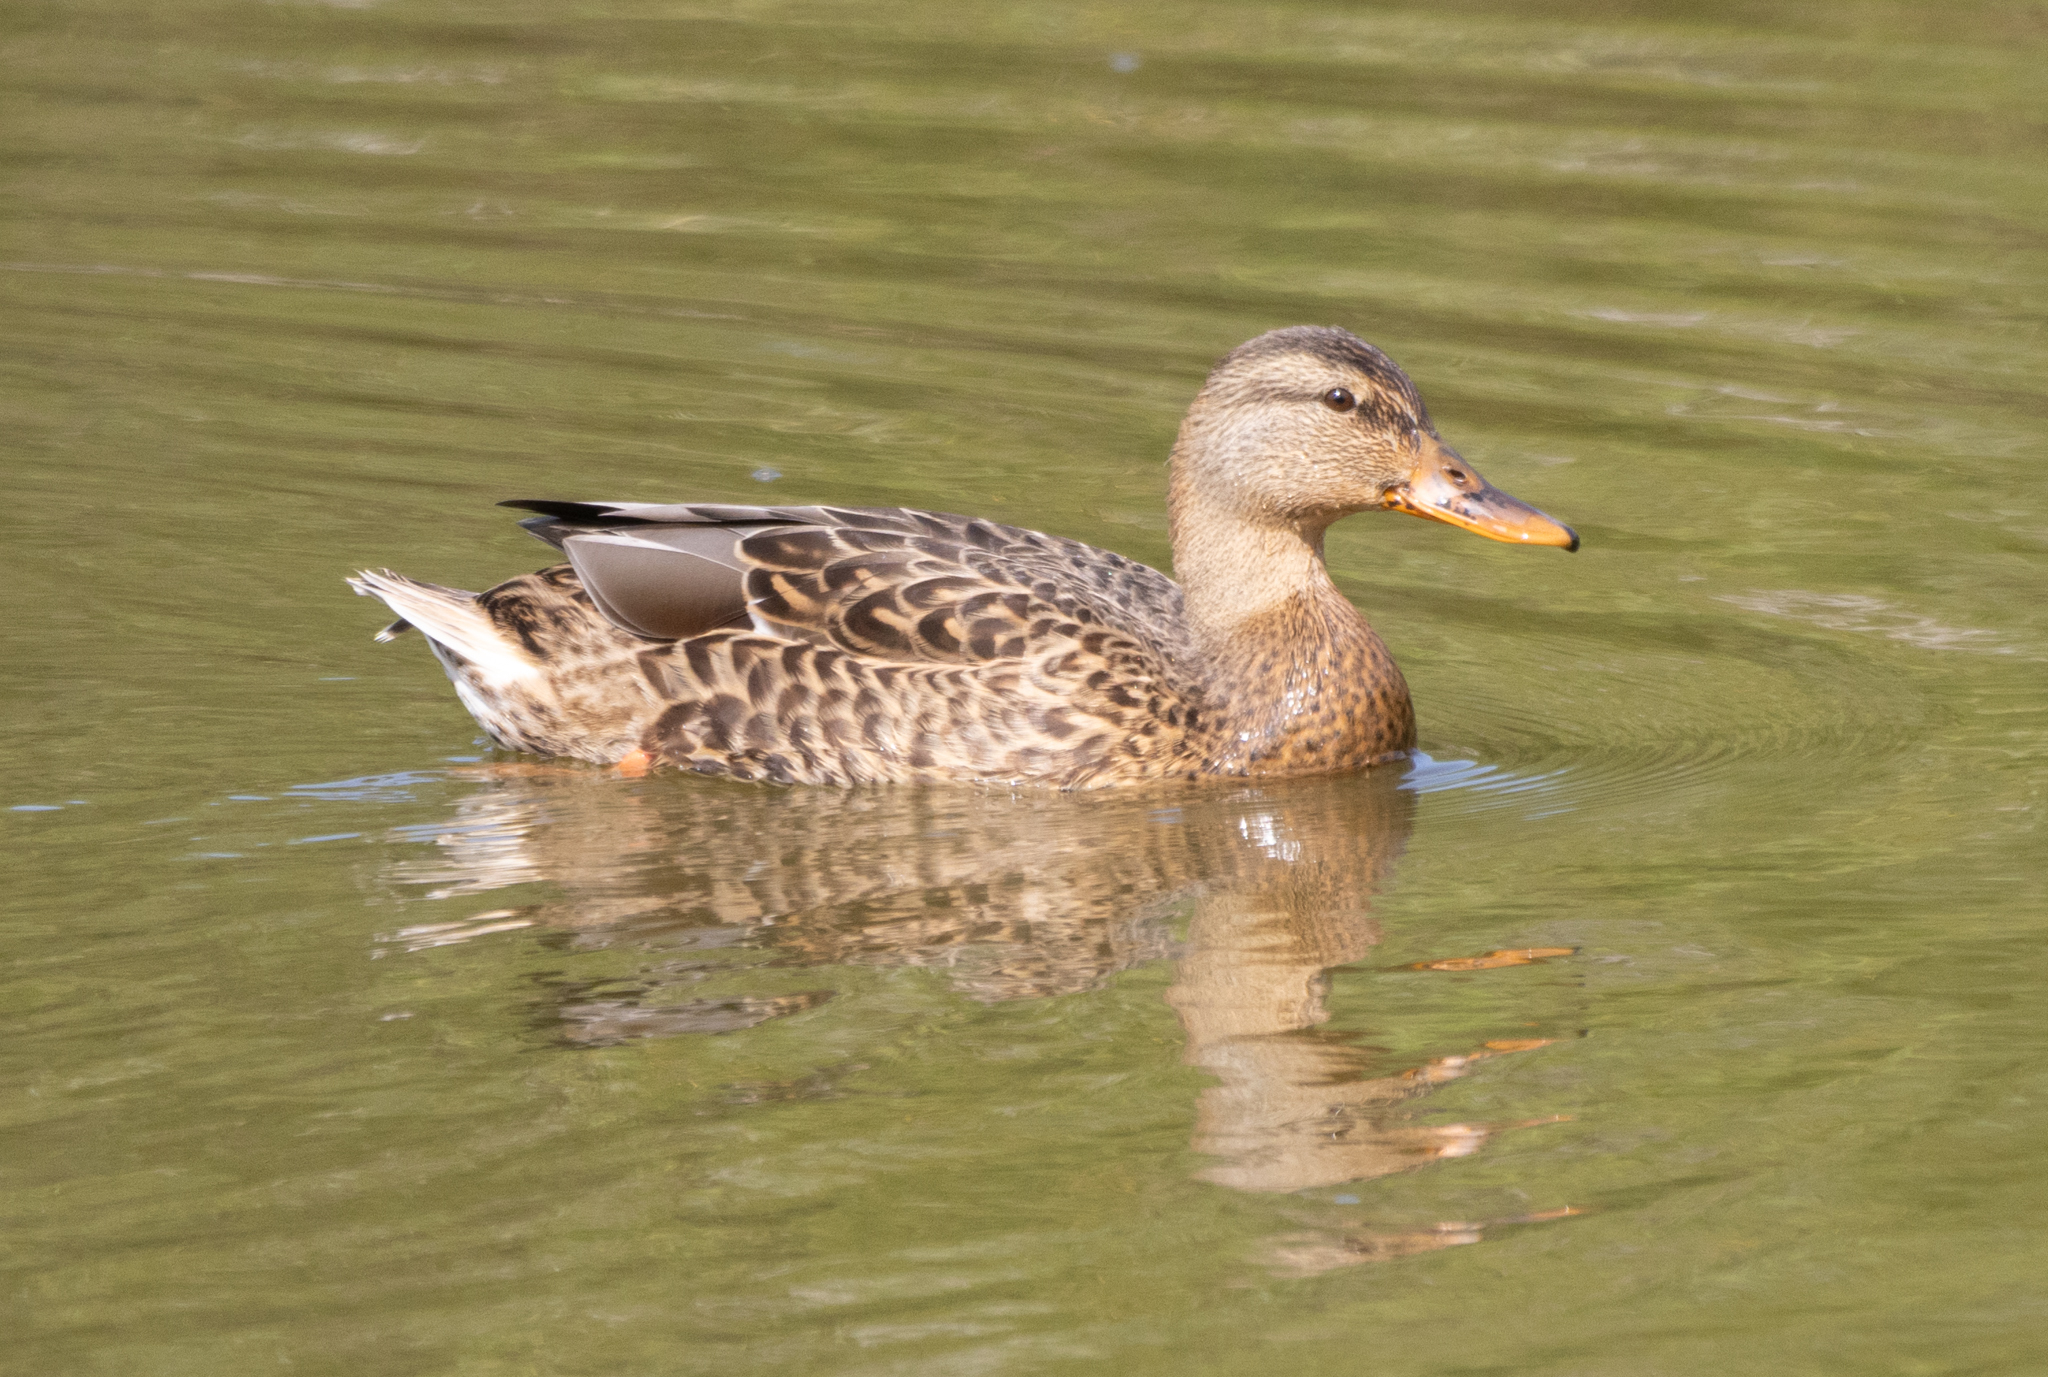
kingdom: Animalia
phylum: Chordata
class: Aves
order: Anseriformes
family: Anatidae
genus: Anas
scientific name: Anas platyrhynchos
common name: Mallard
